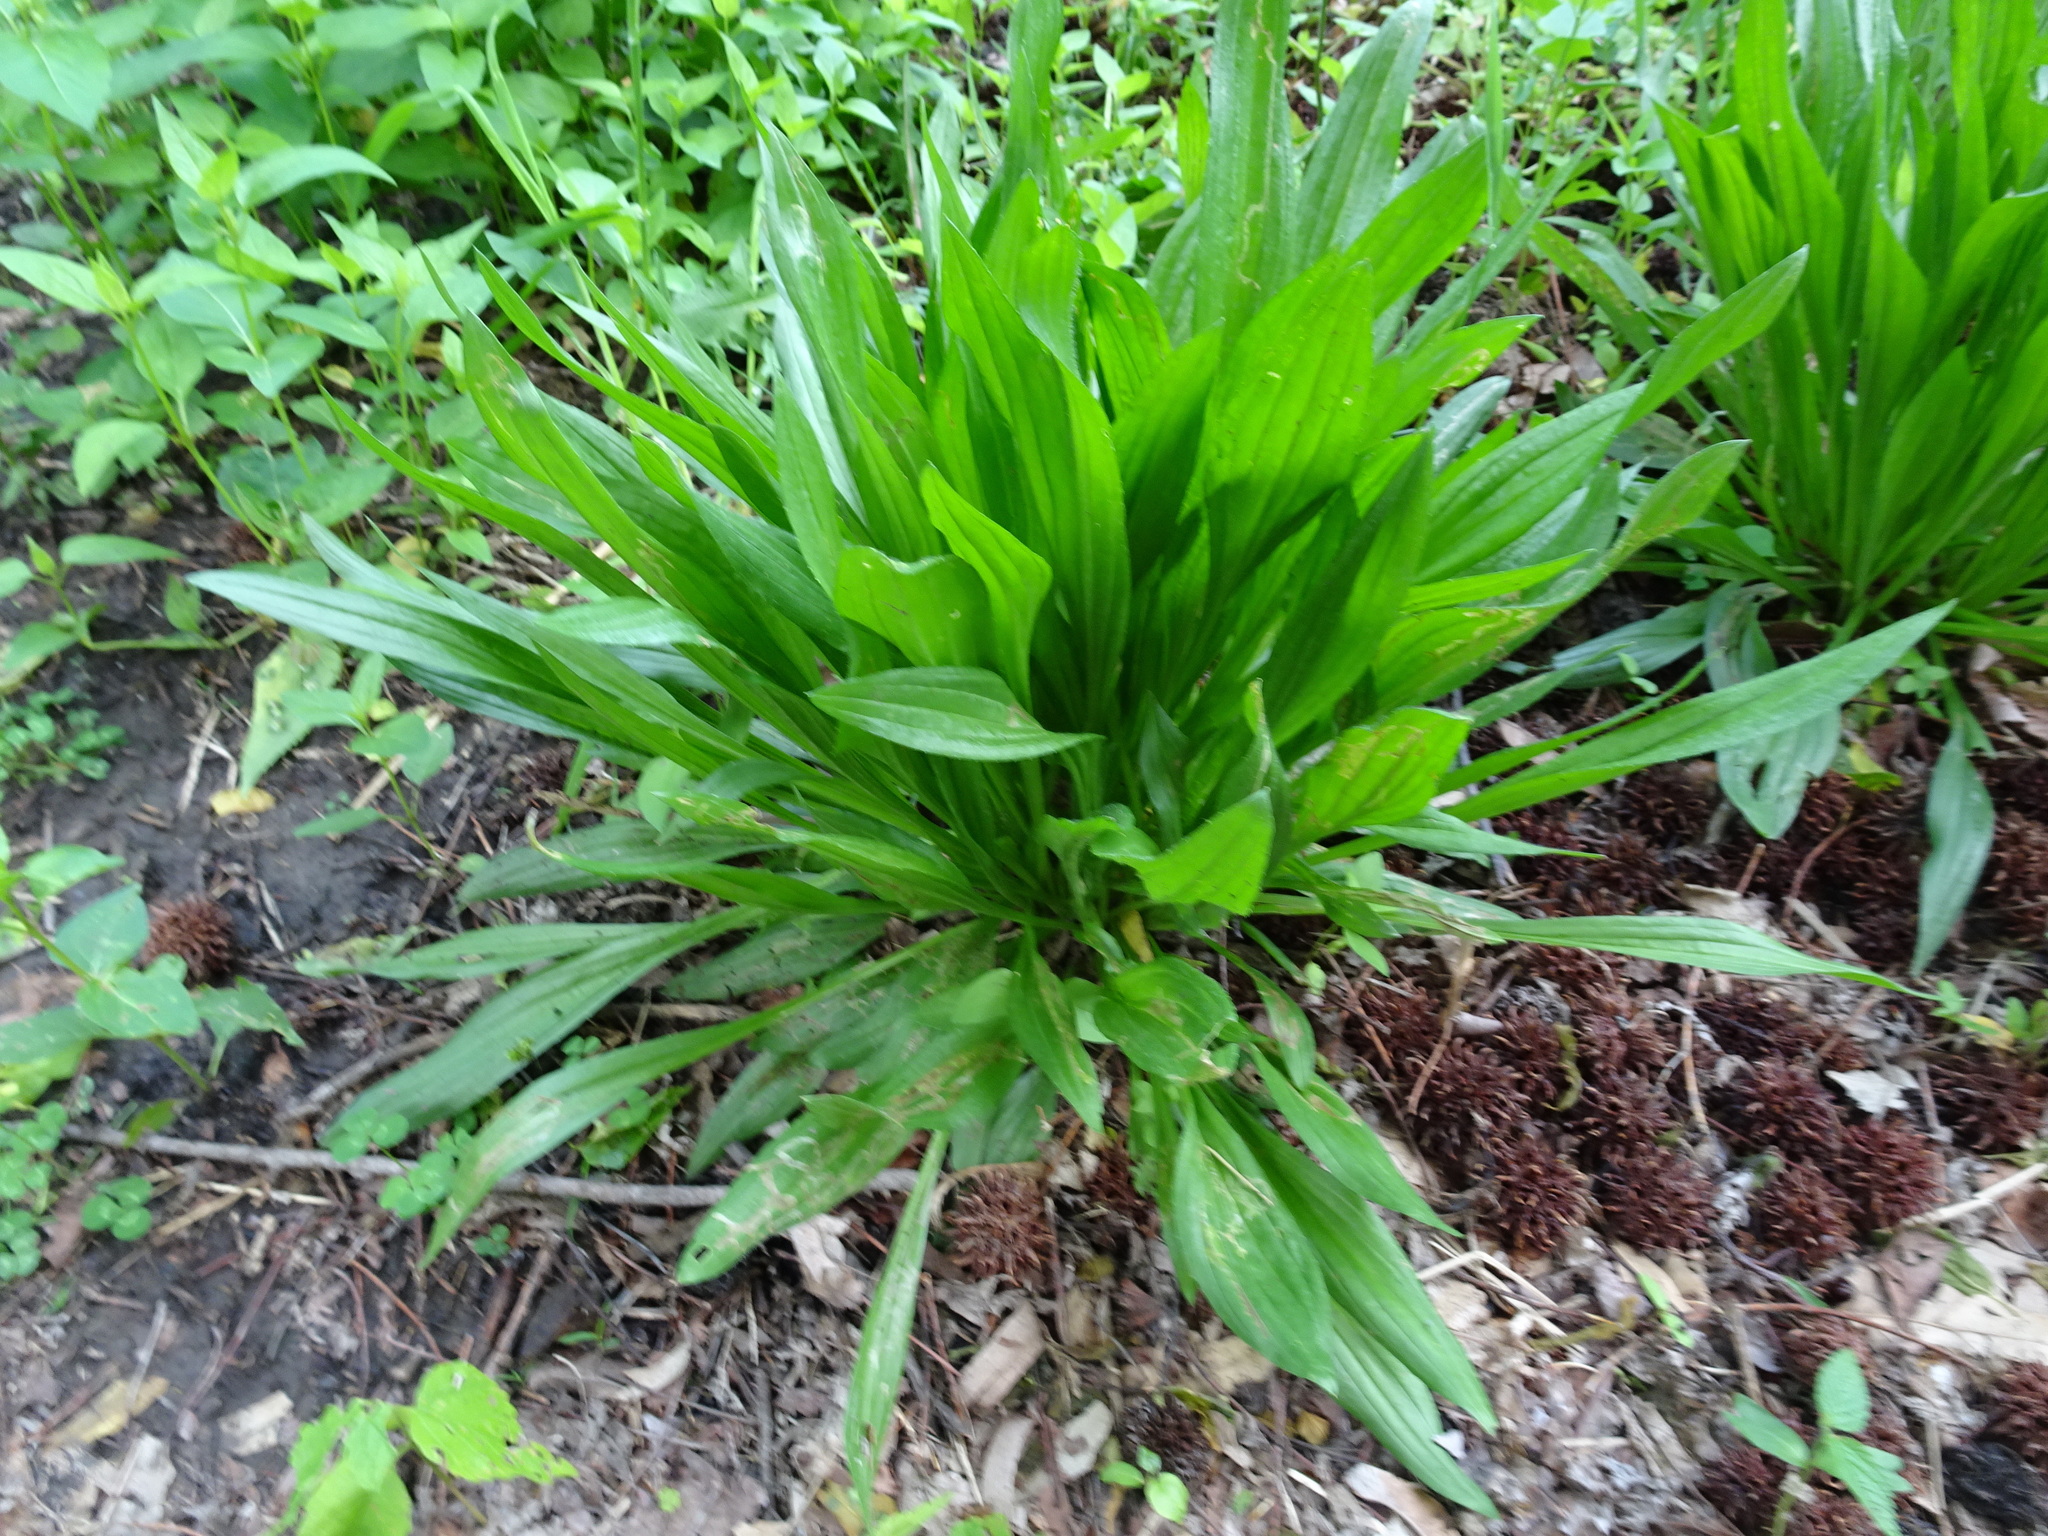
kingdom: Plantae
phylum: Tracheophyta
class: Magnoliopsida
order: Lamiales
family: Plantaginaceae
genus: Plantago
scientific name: Plantago lanceolata
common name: Ribwort plantain
